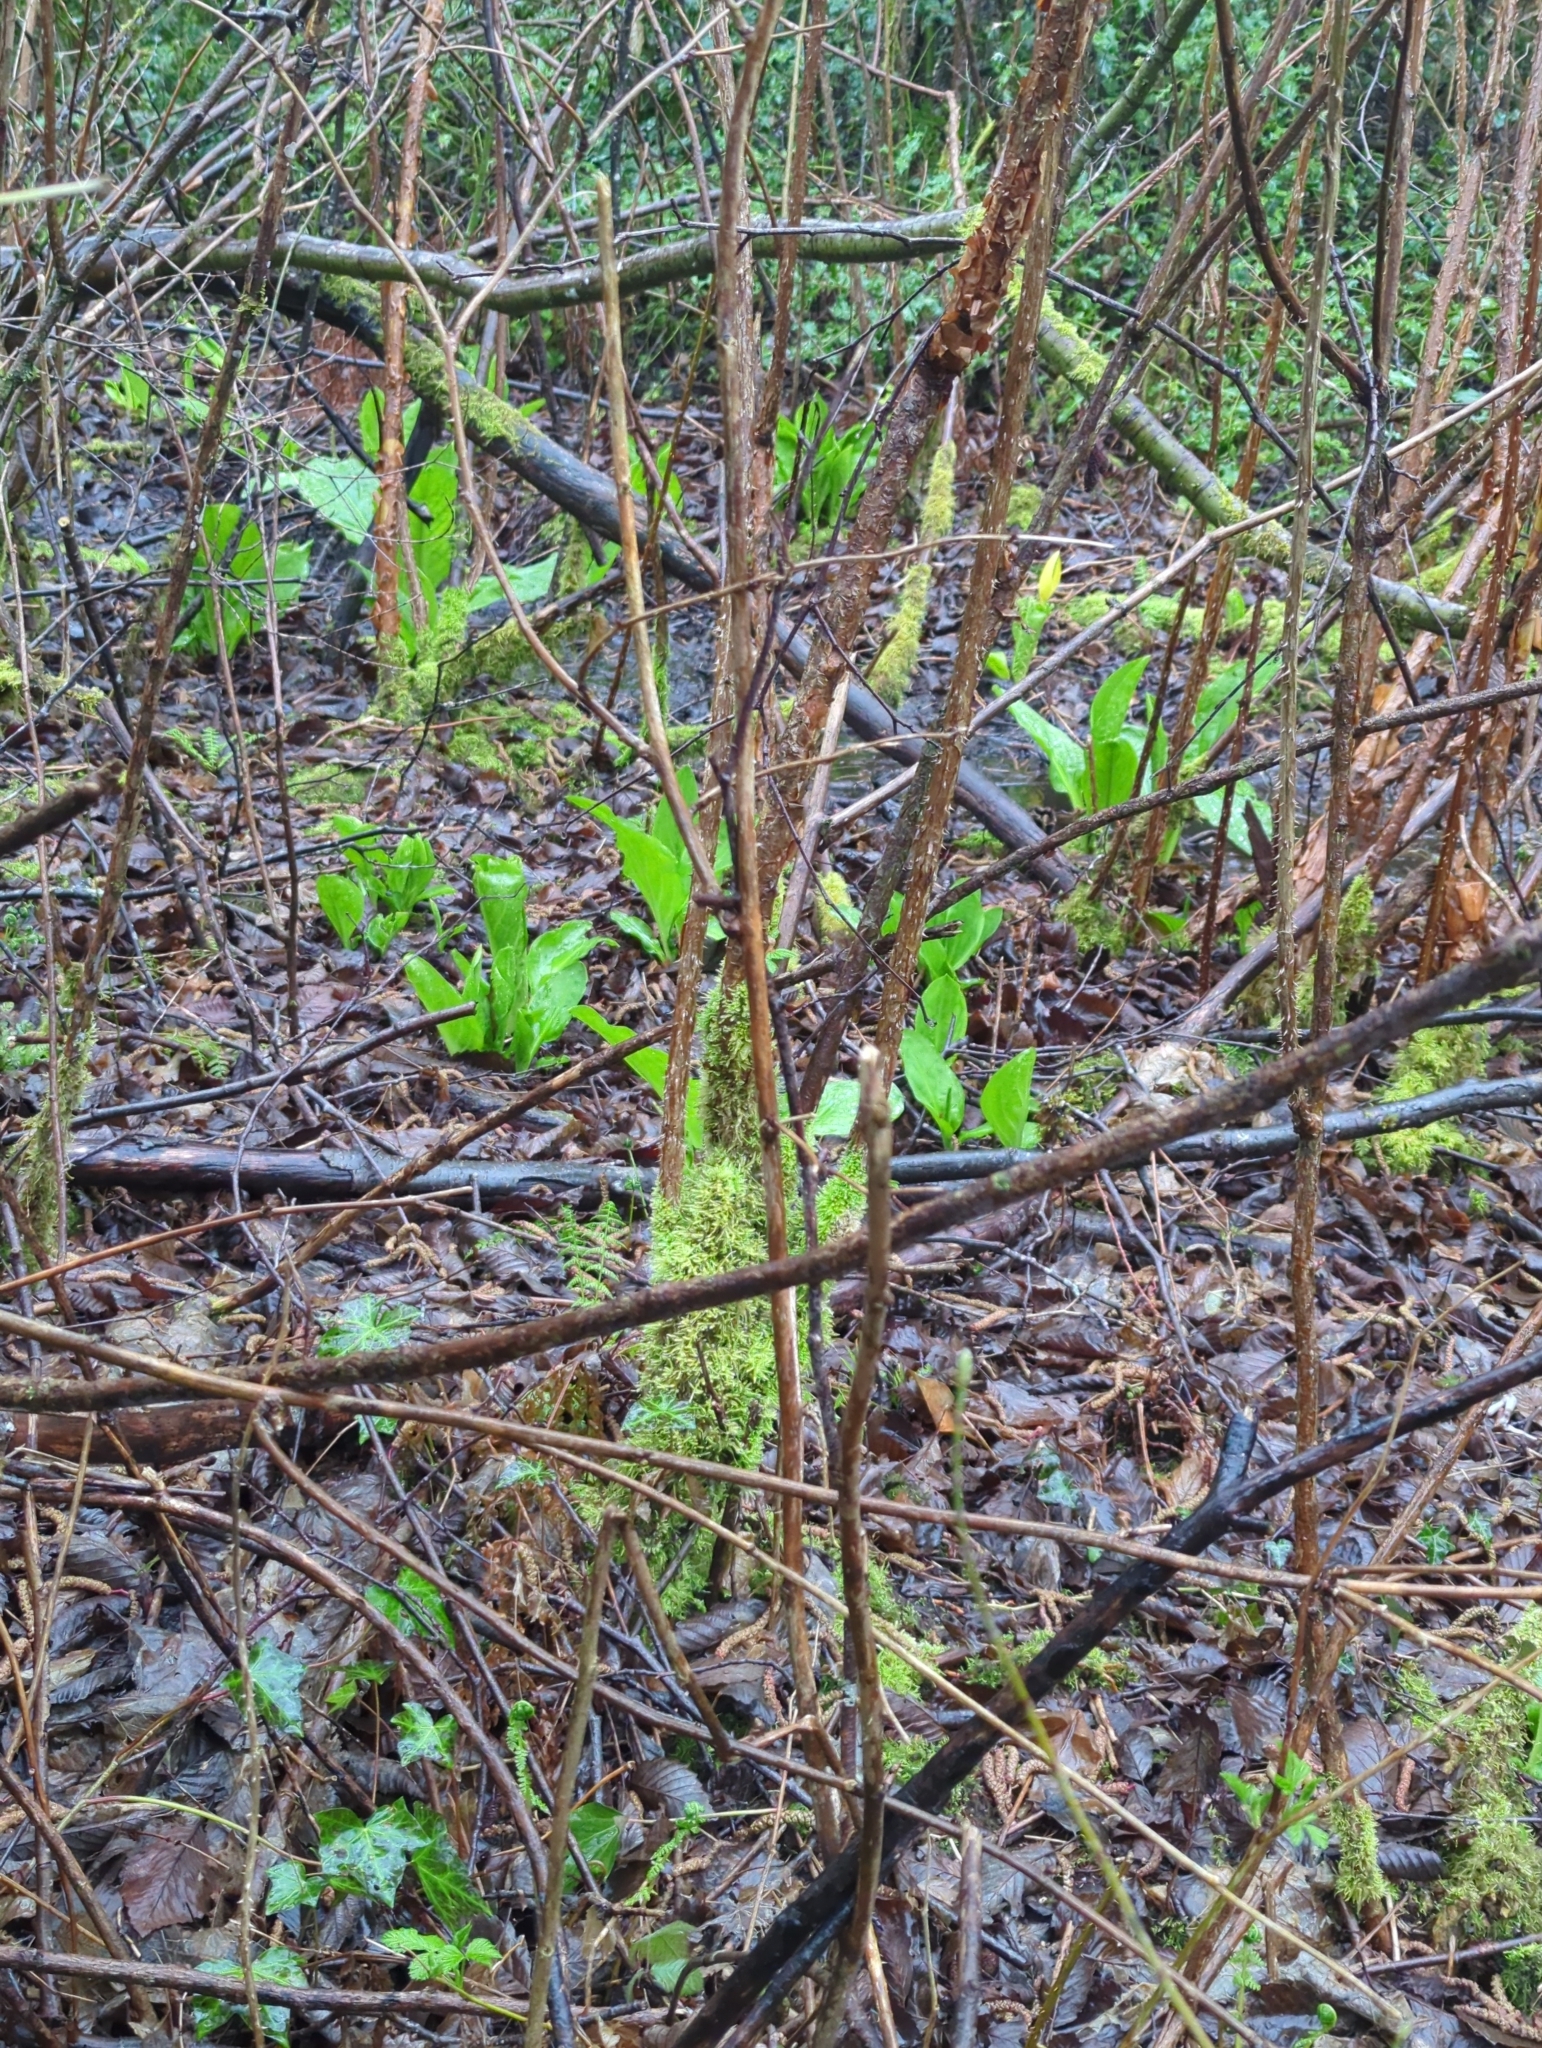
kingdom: Plantae
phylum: Tracheophyta
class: Liliopsida
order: Alismatales
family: Araceae
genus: Lysichiton
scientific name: Lysichiton americanus
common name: American skunk cabbage
